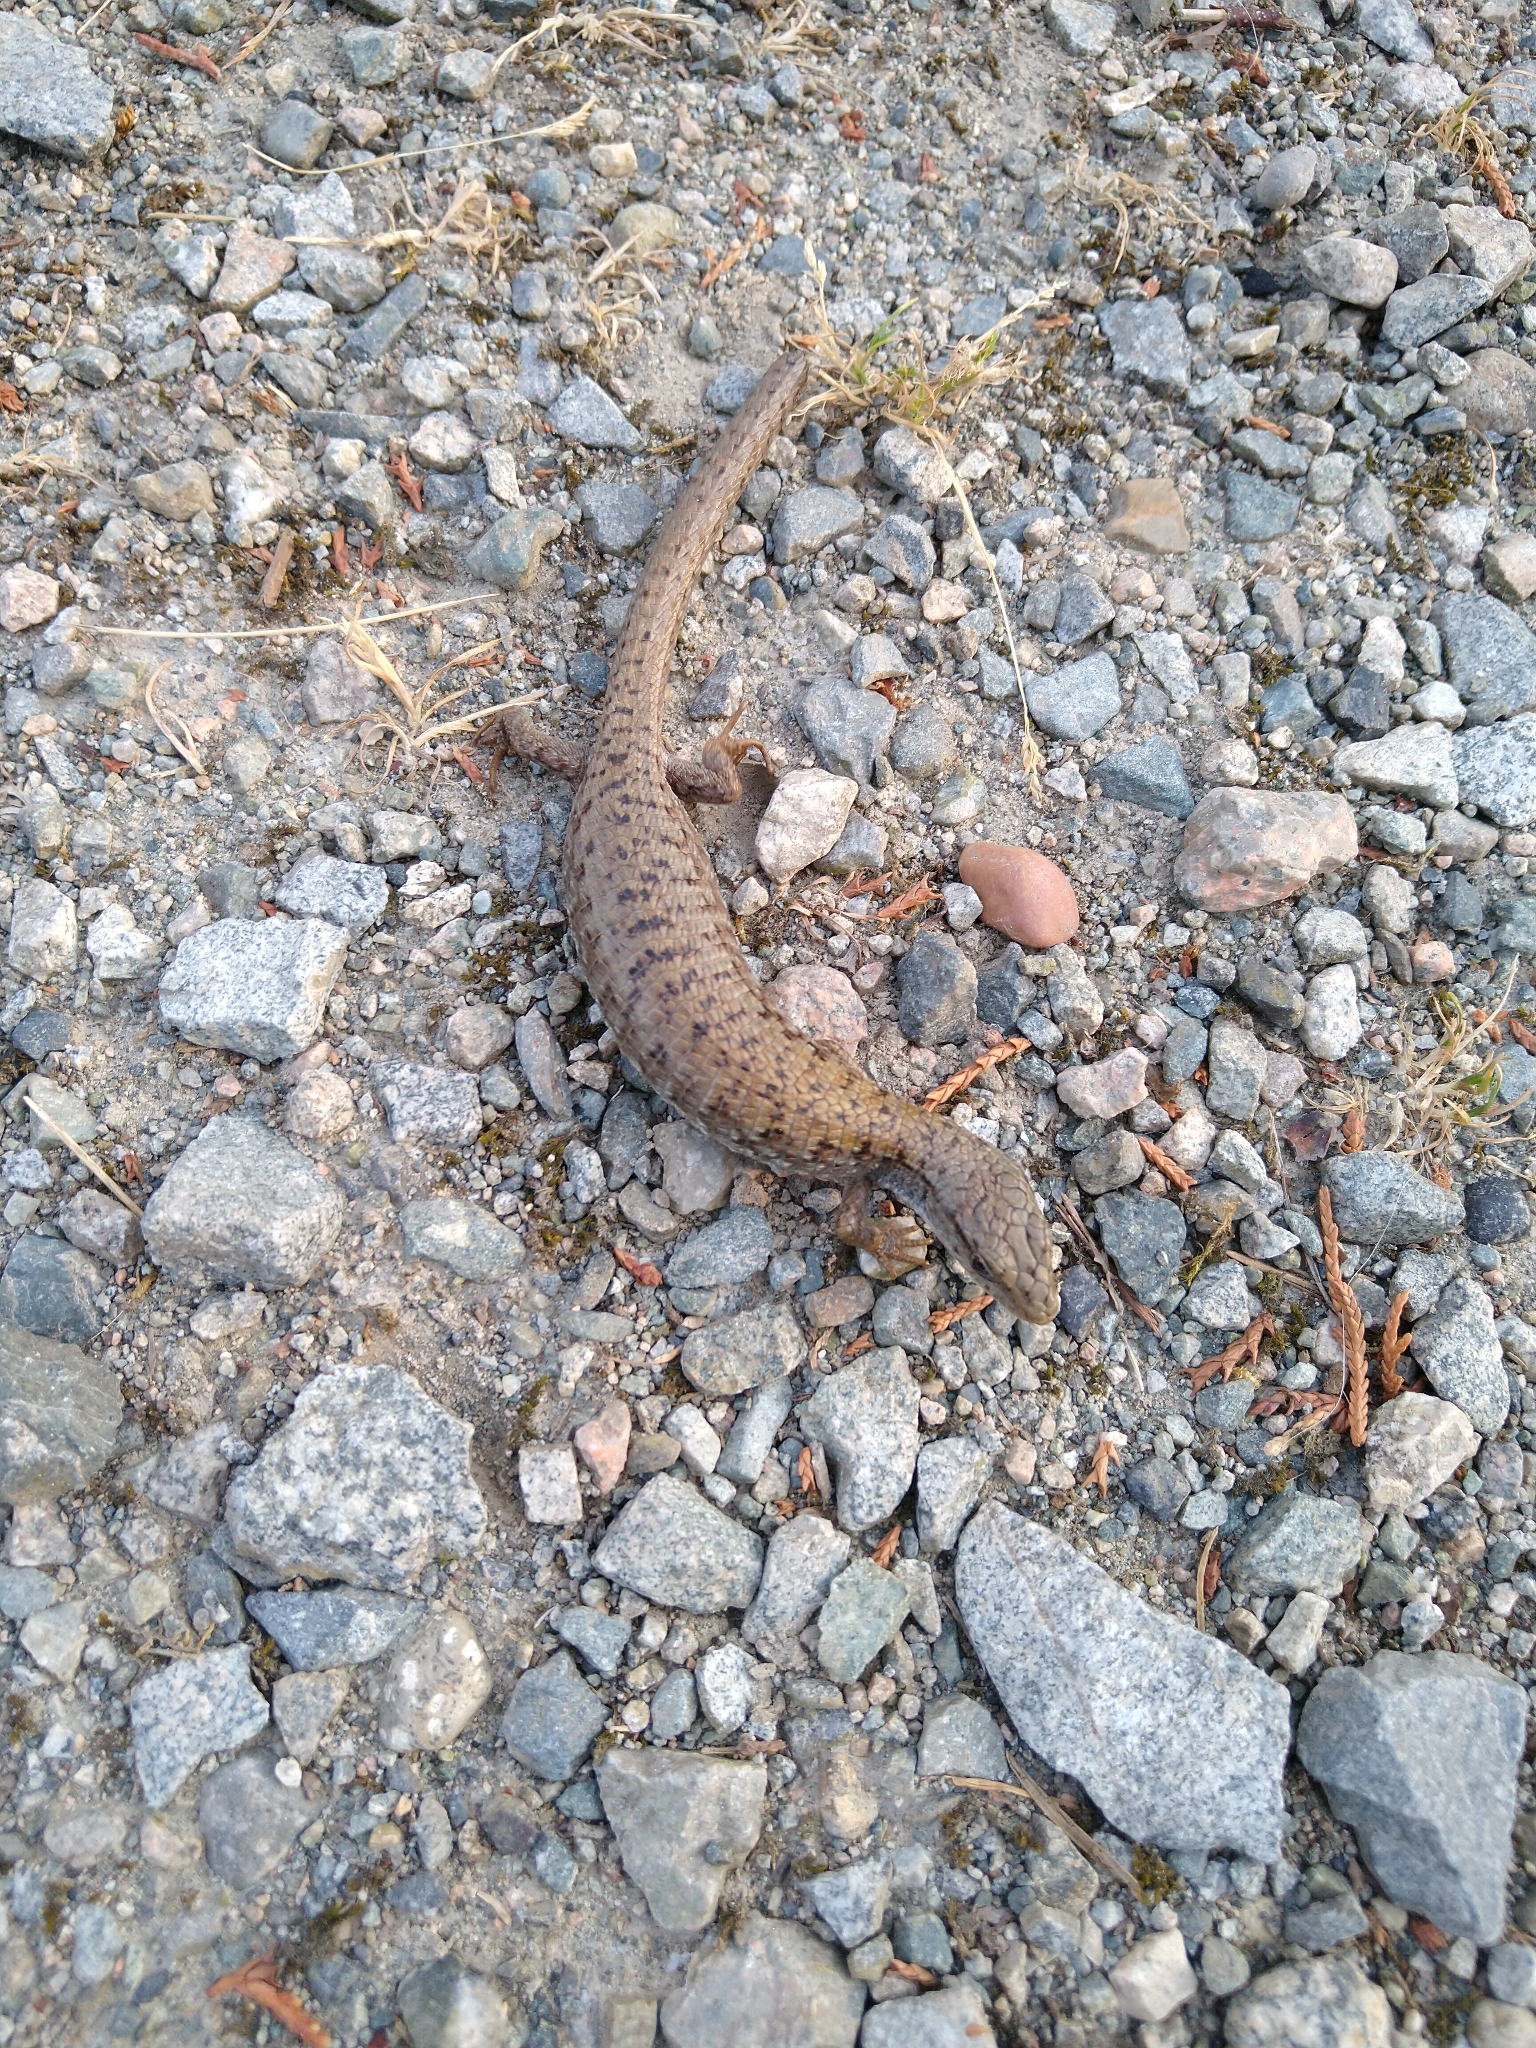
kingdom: Animalia
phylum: Chordata
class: Squamata
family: Anguidae
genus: Elgaria
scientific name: Elgaria coerulea
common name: Northern alligator lizard
